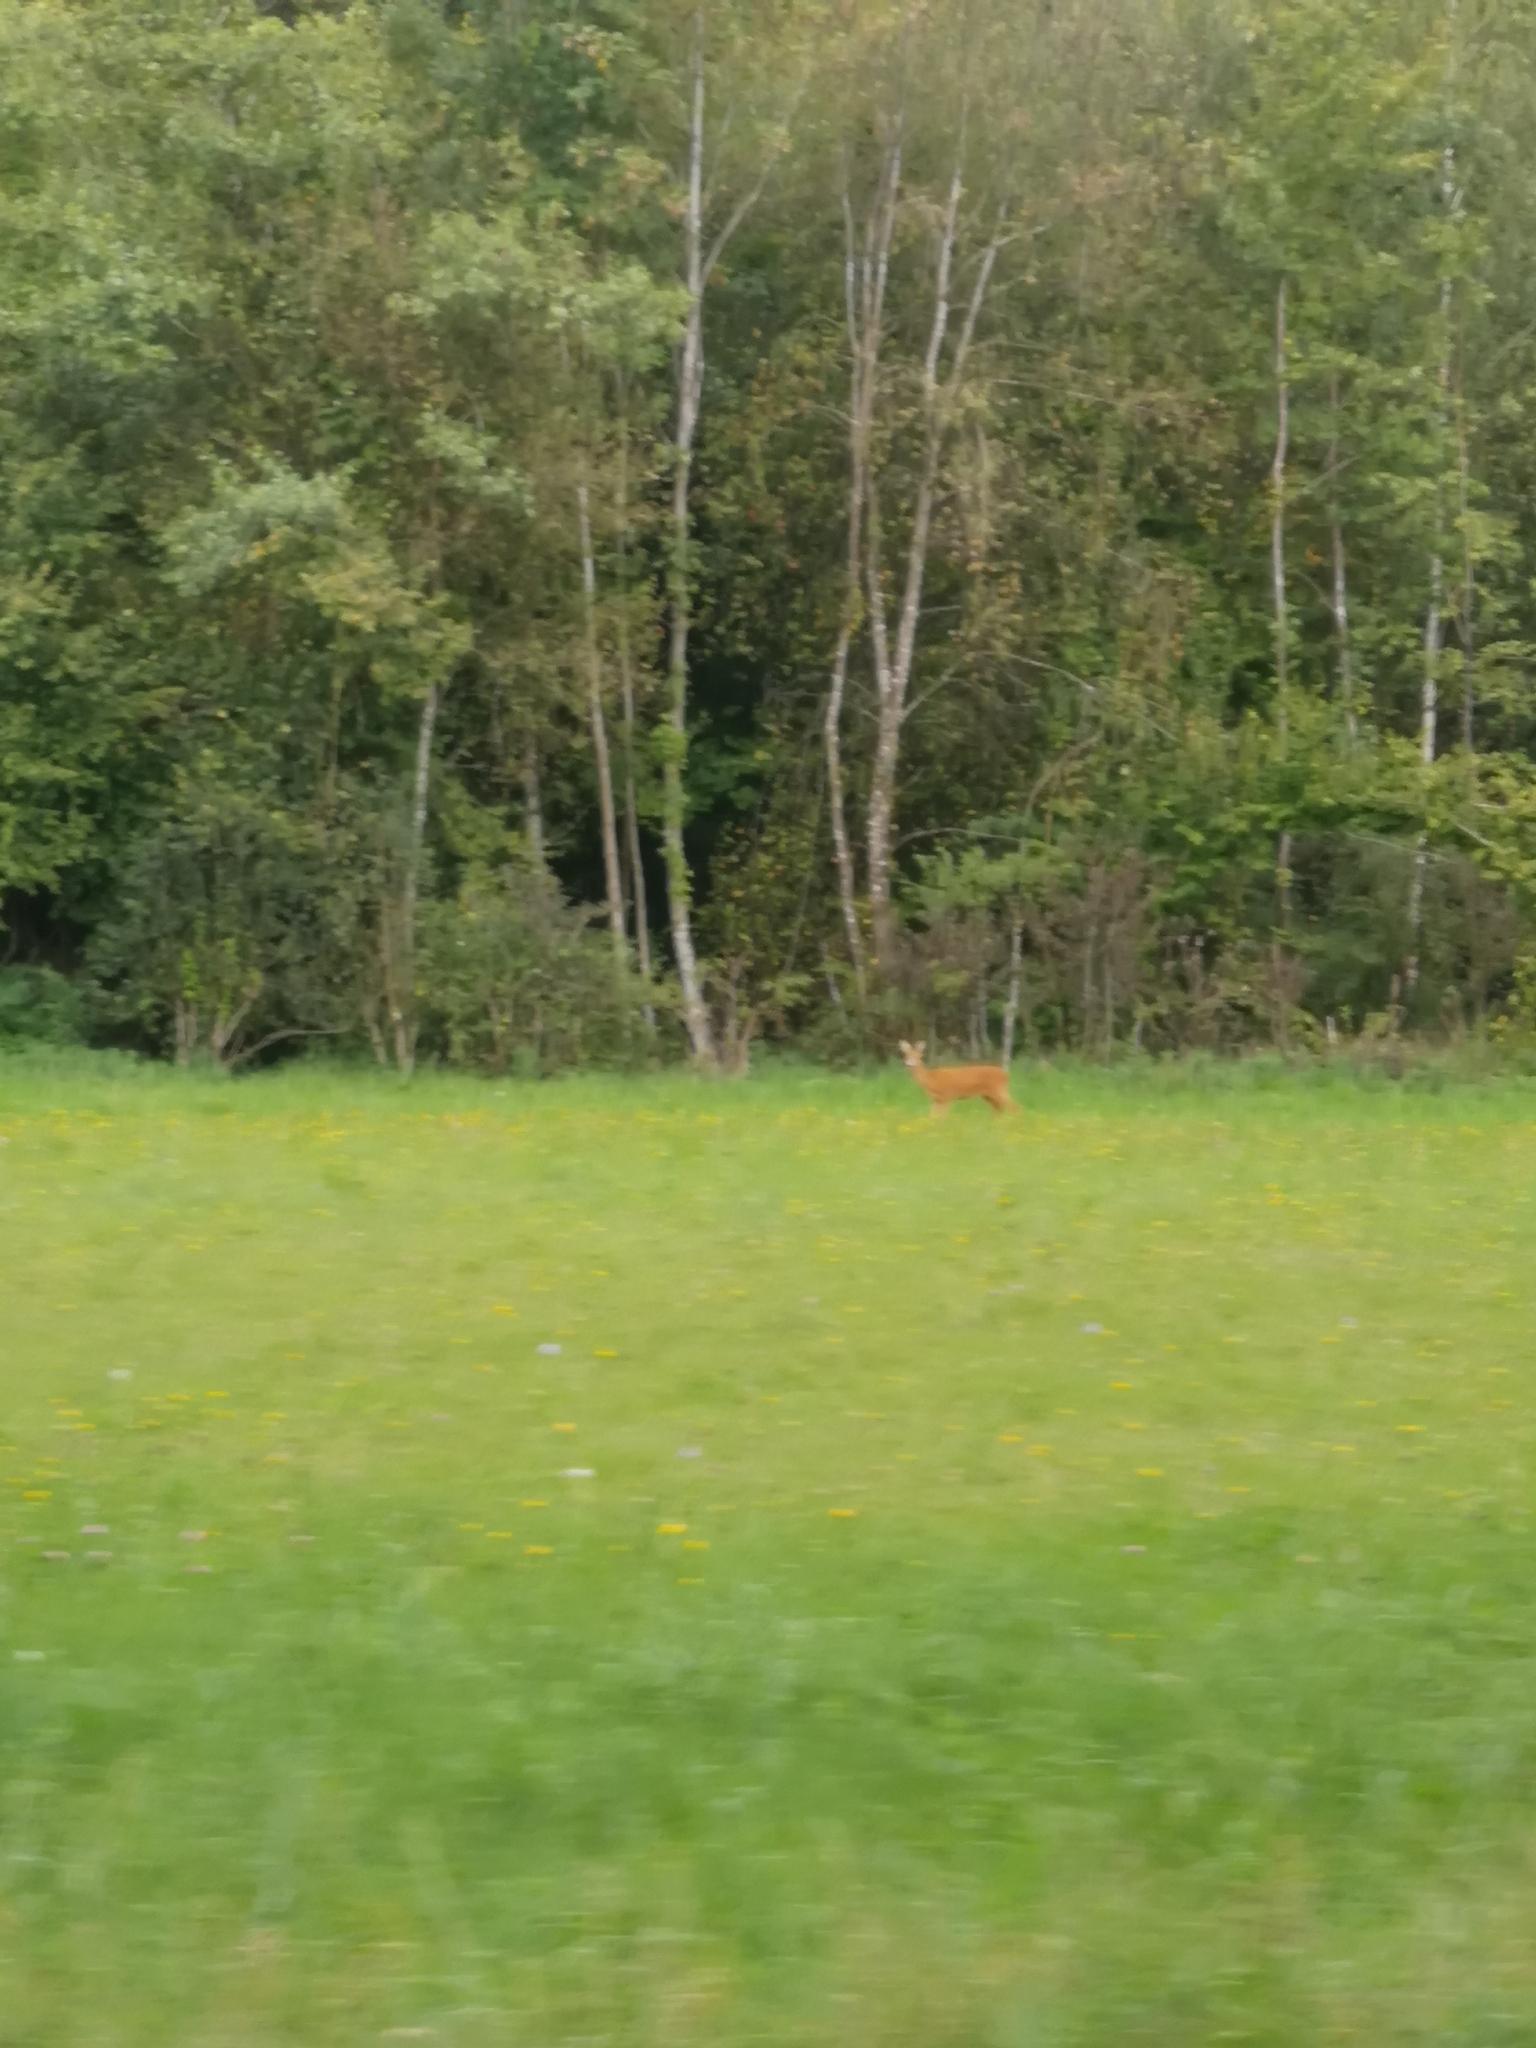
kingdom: Animalia
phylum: Chordata
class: Mammalia
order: Artiodactyla
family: Cervidae
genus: Capreolus
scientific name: Capreolus capreolus
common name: Western roe deer
